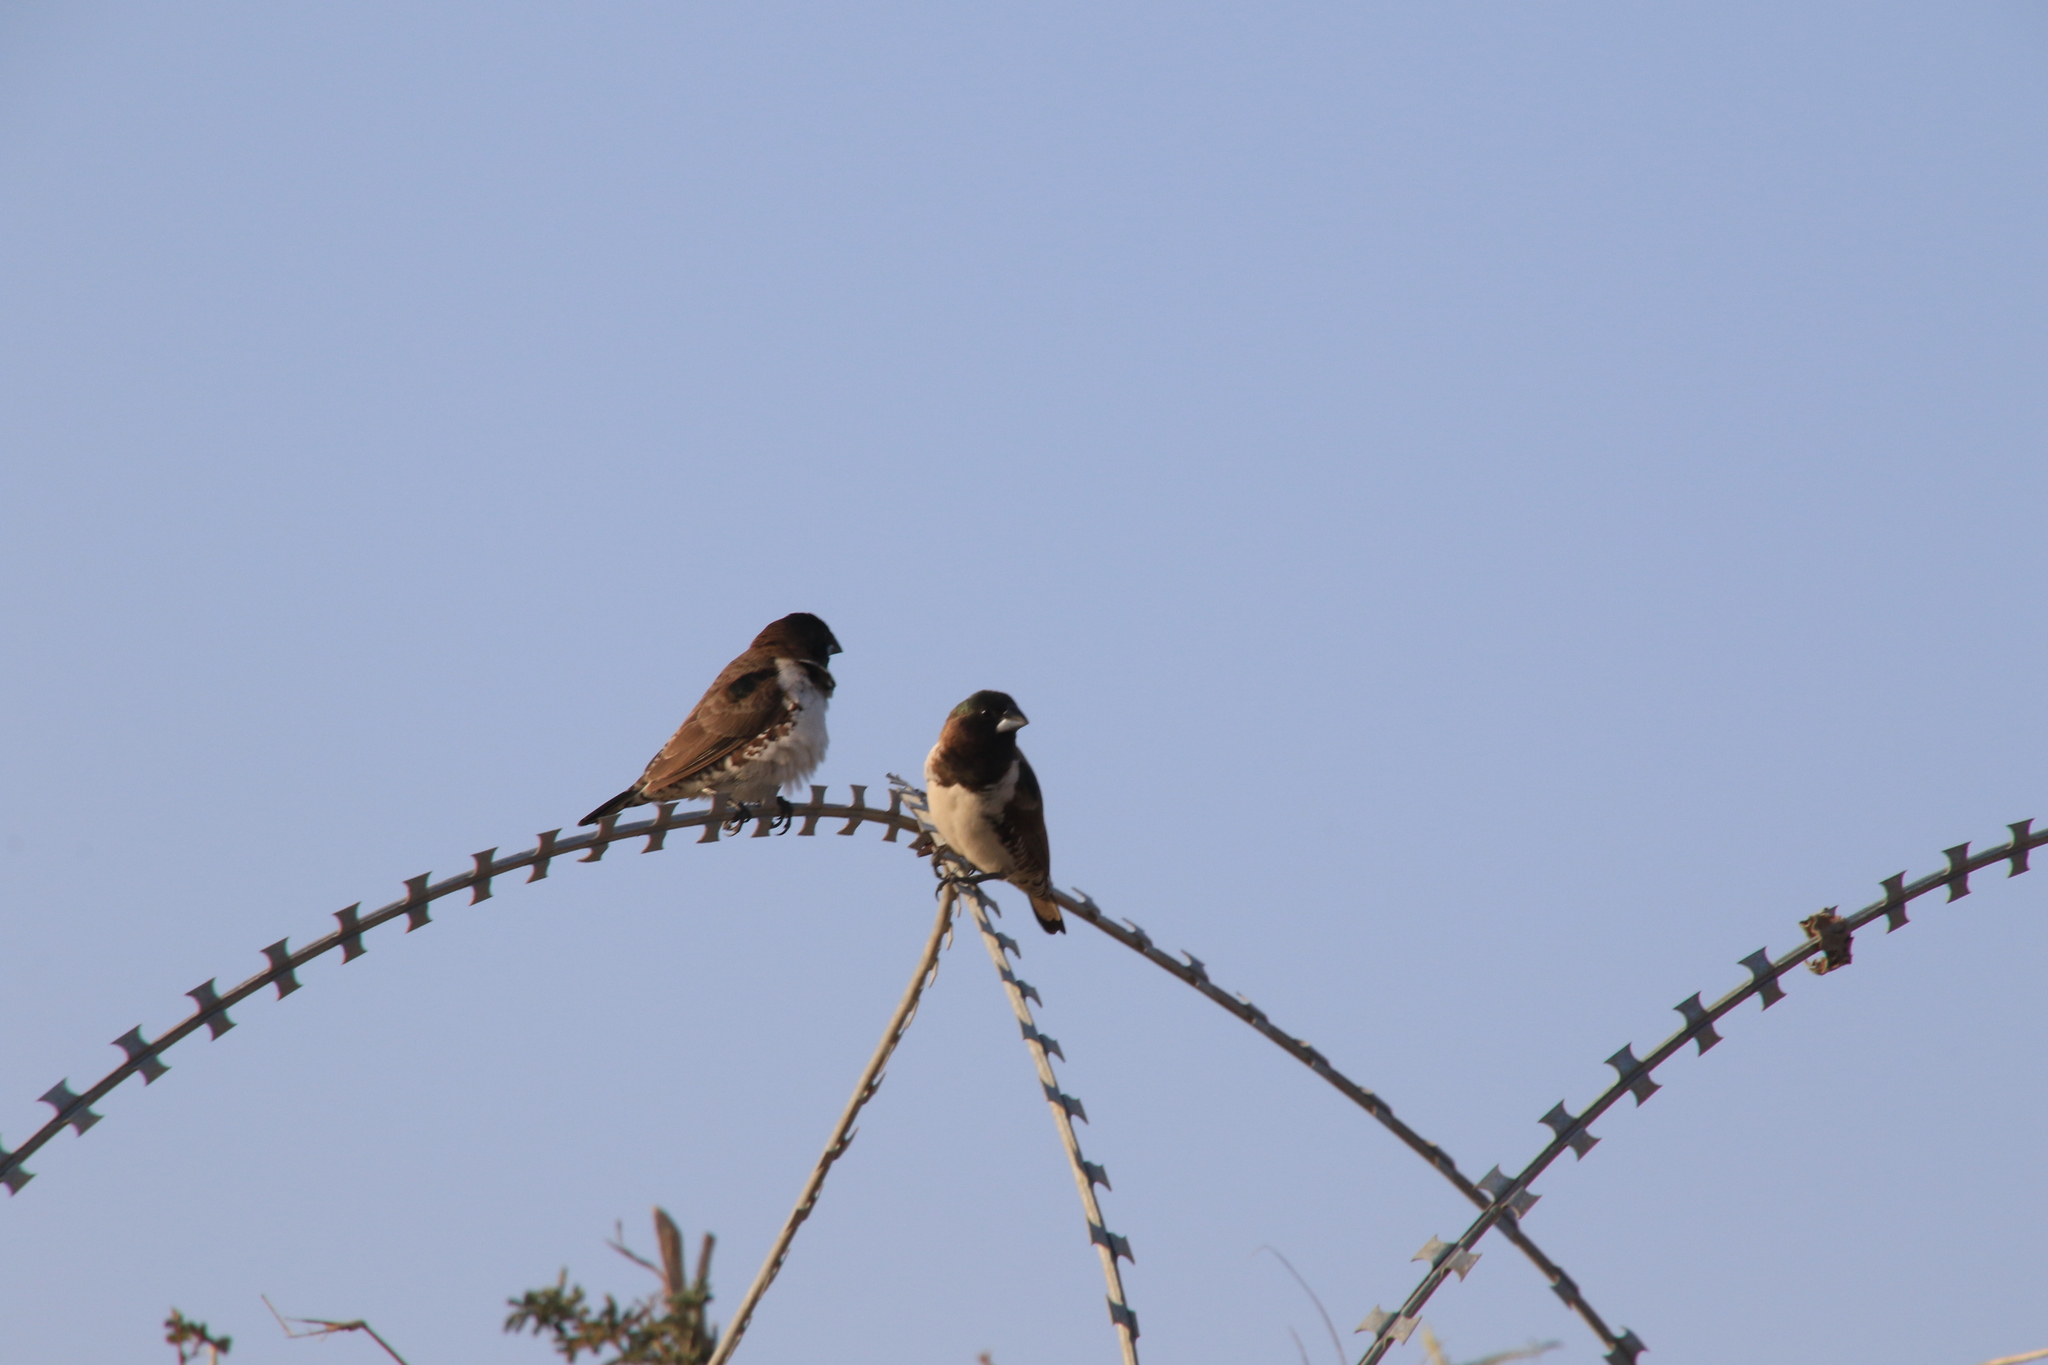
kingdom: Animalia
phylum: Chordata
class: Aves
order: Passeriformes
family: Estrildidae
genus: Lonchura
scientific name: Lonchura cucullata
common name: Bronze mannikin
